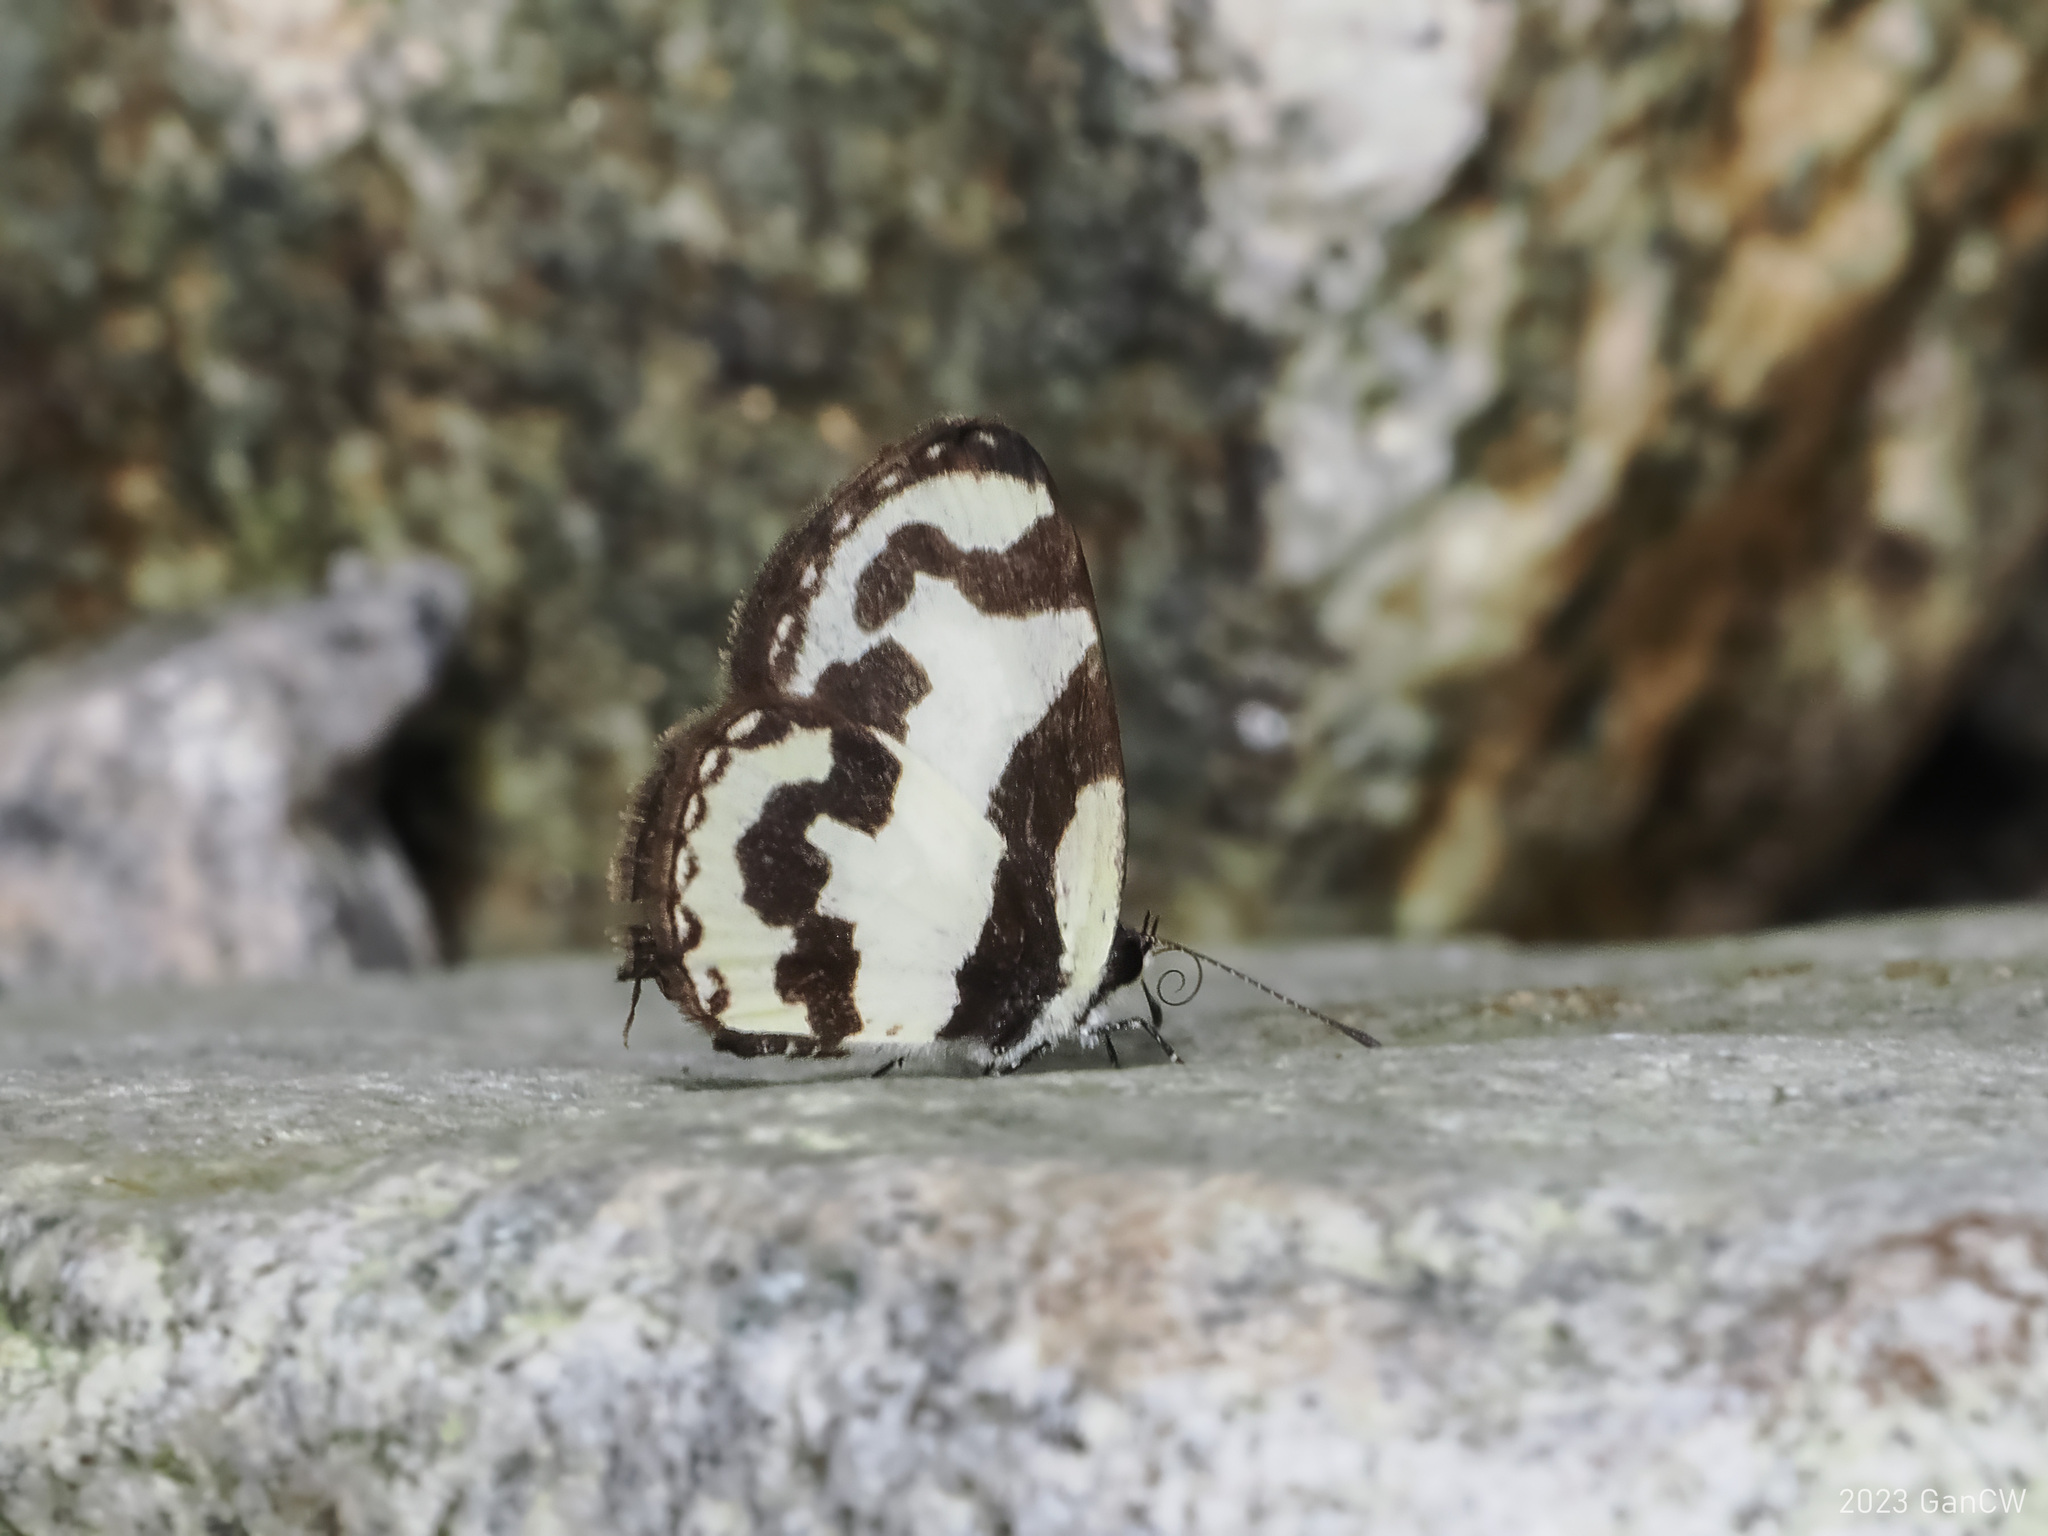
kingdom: Animalia
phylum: Arthropoda
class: Insecta
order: Lepidoptera
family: Lycaenidae
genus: Caleta
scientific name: Caleta
